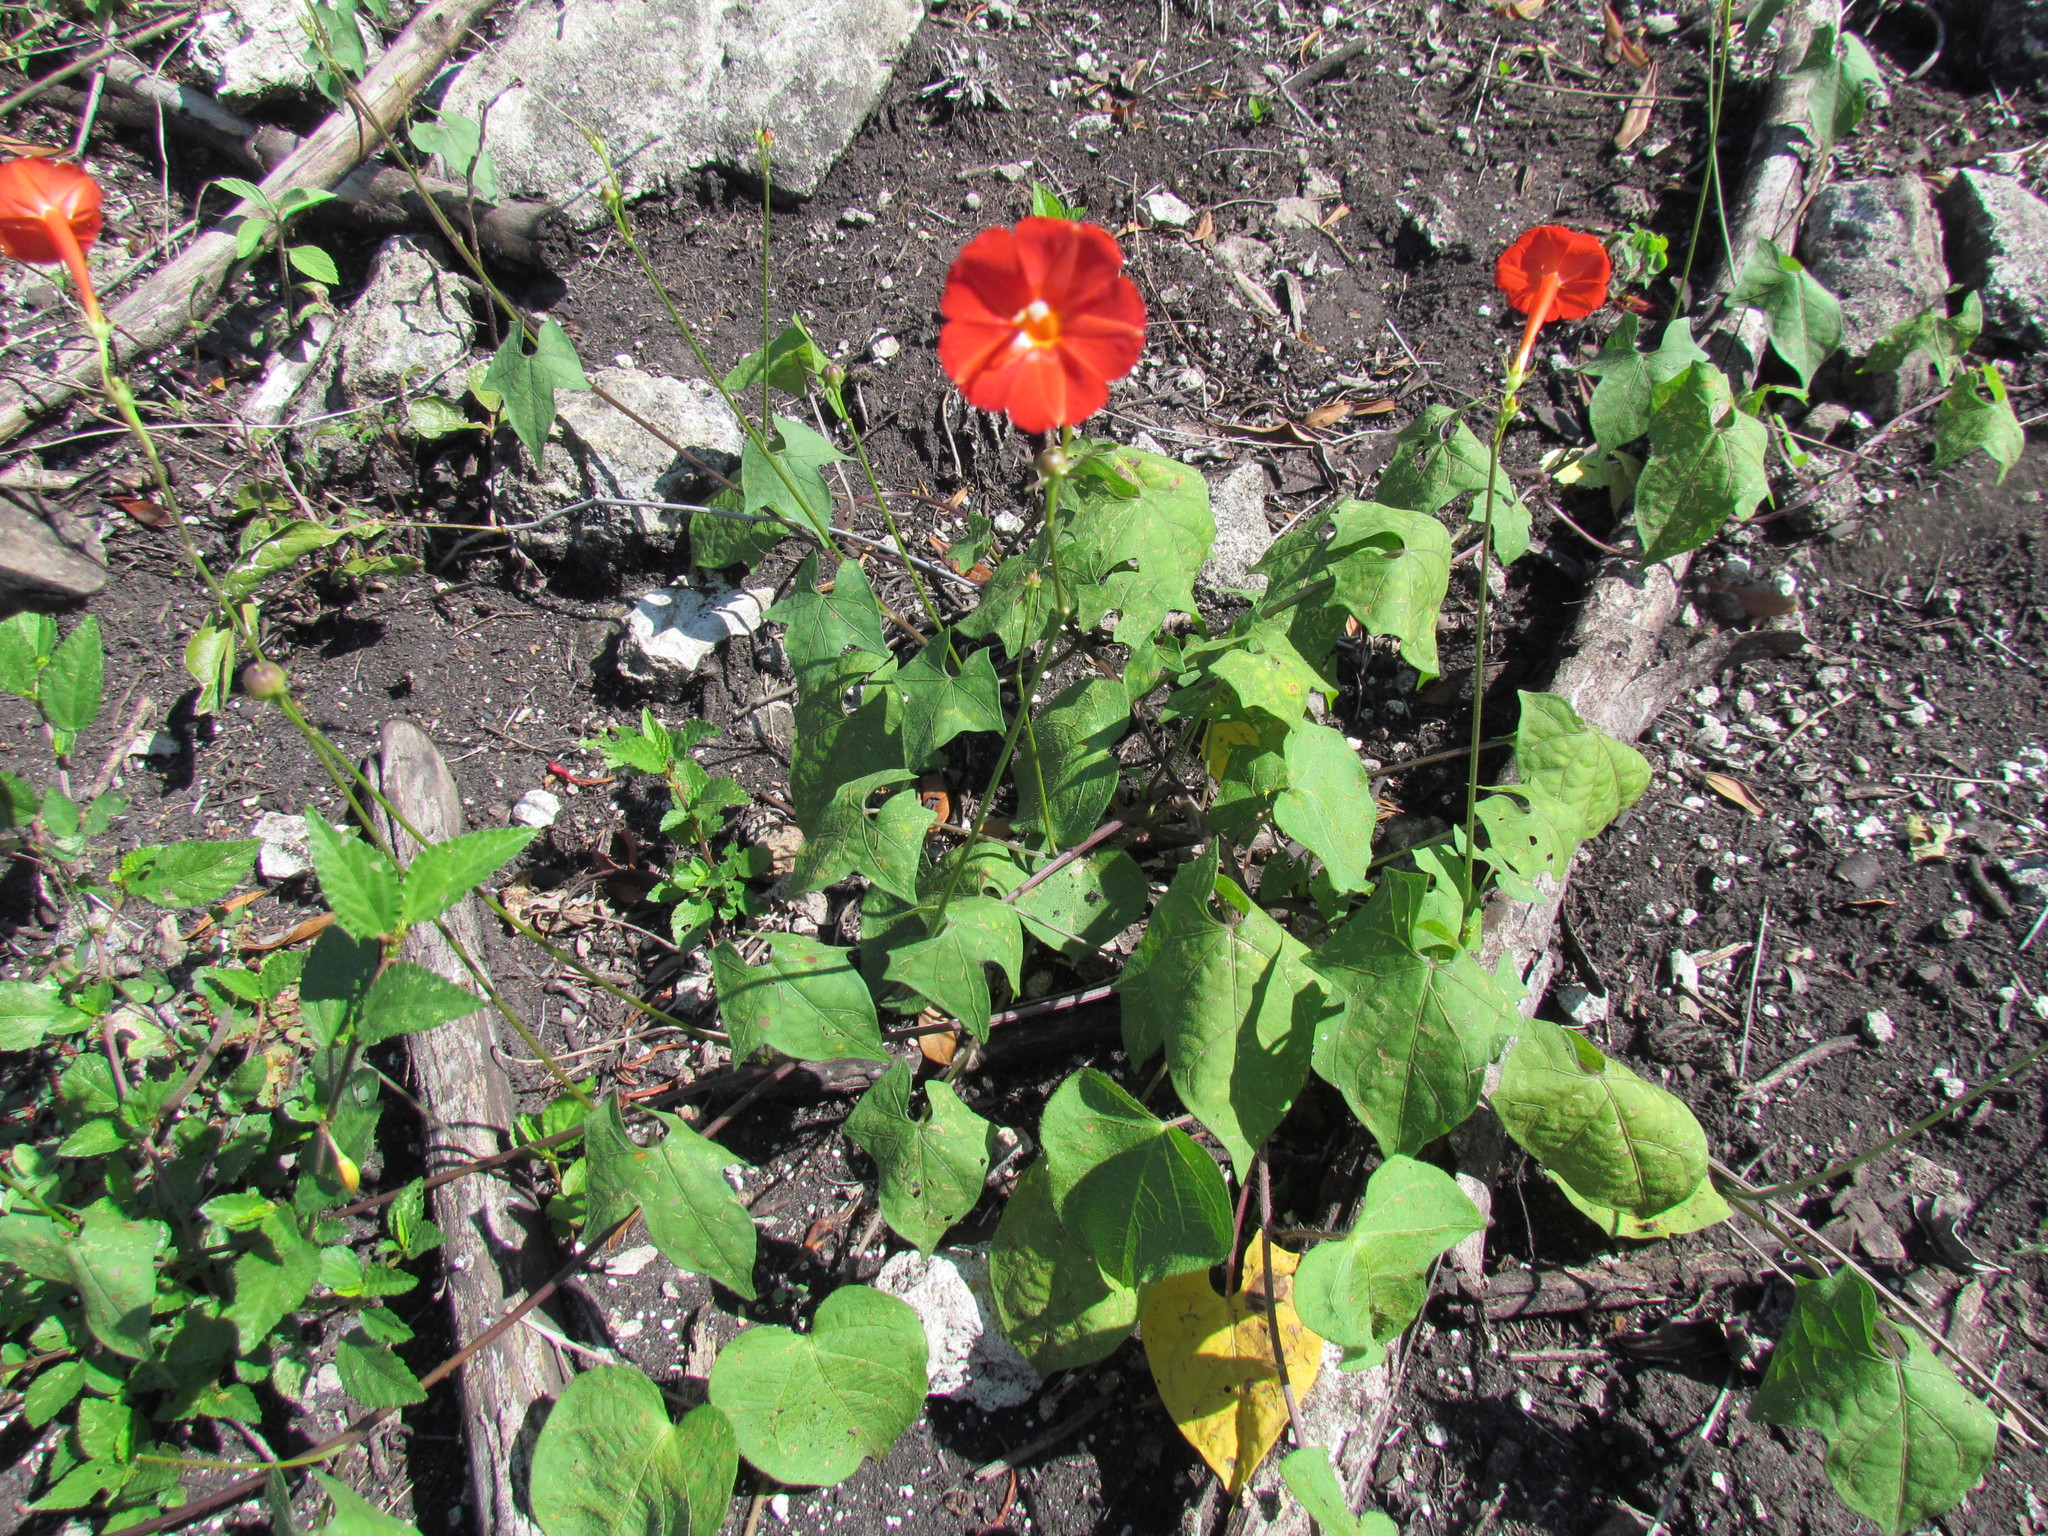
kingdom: Plantae
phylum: Tracheophyta
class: Magnoliopsida
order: Solanales
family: Convolvulaceae
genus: Ipomoea
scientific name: Ipomoea hederifolia
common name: Ivy-leaf morning-glory
